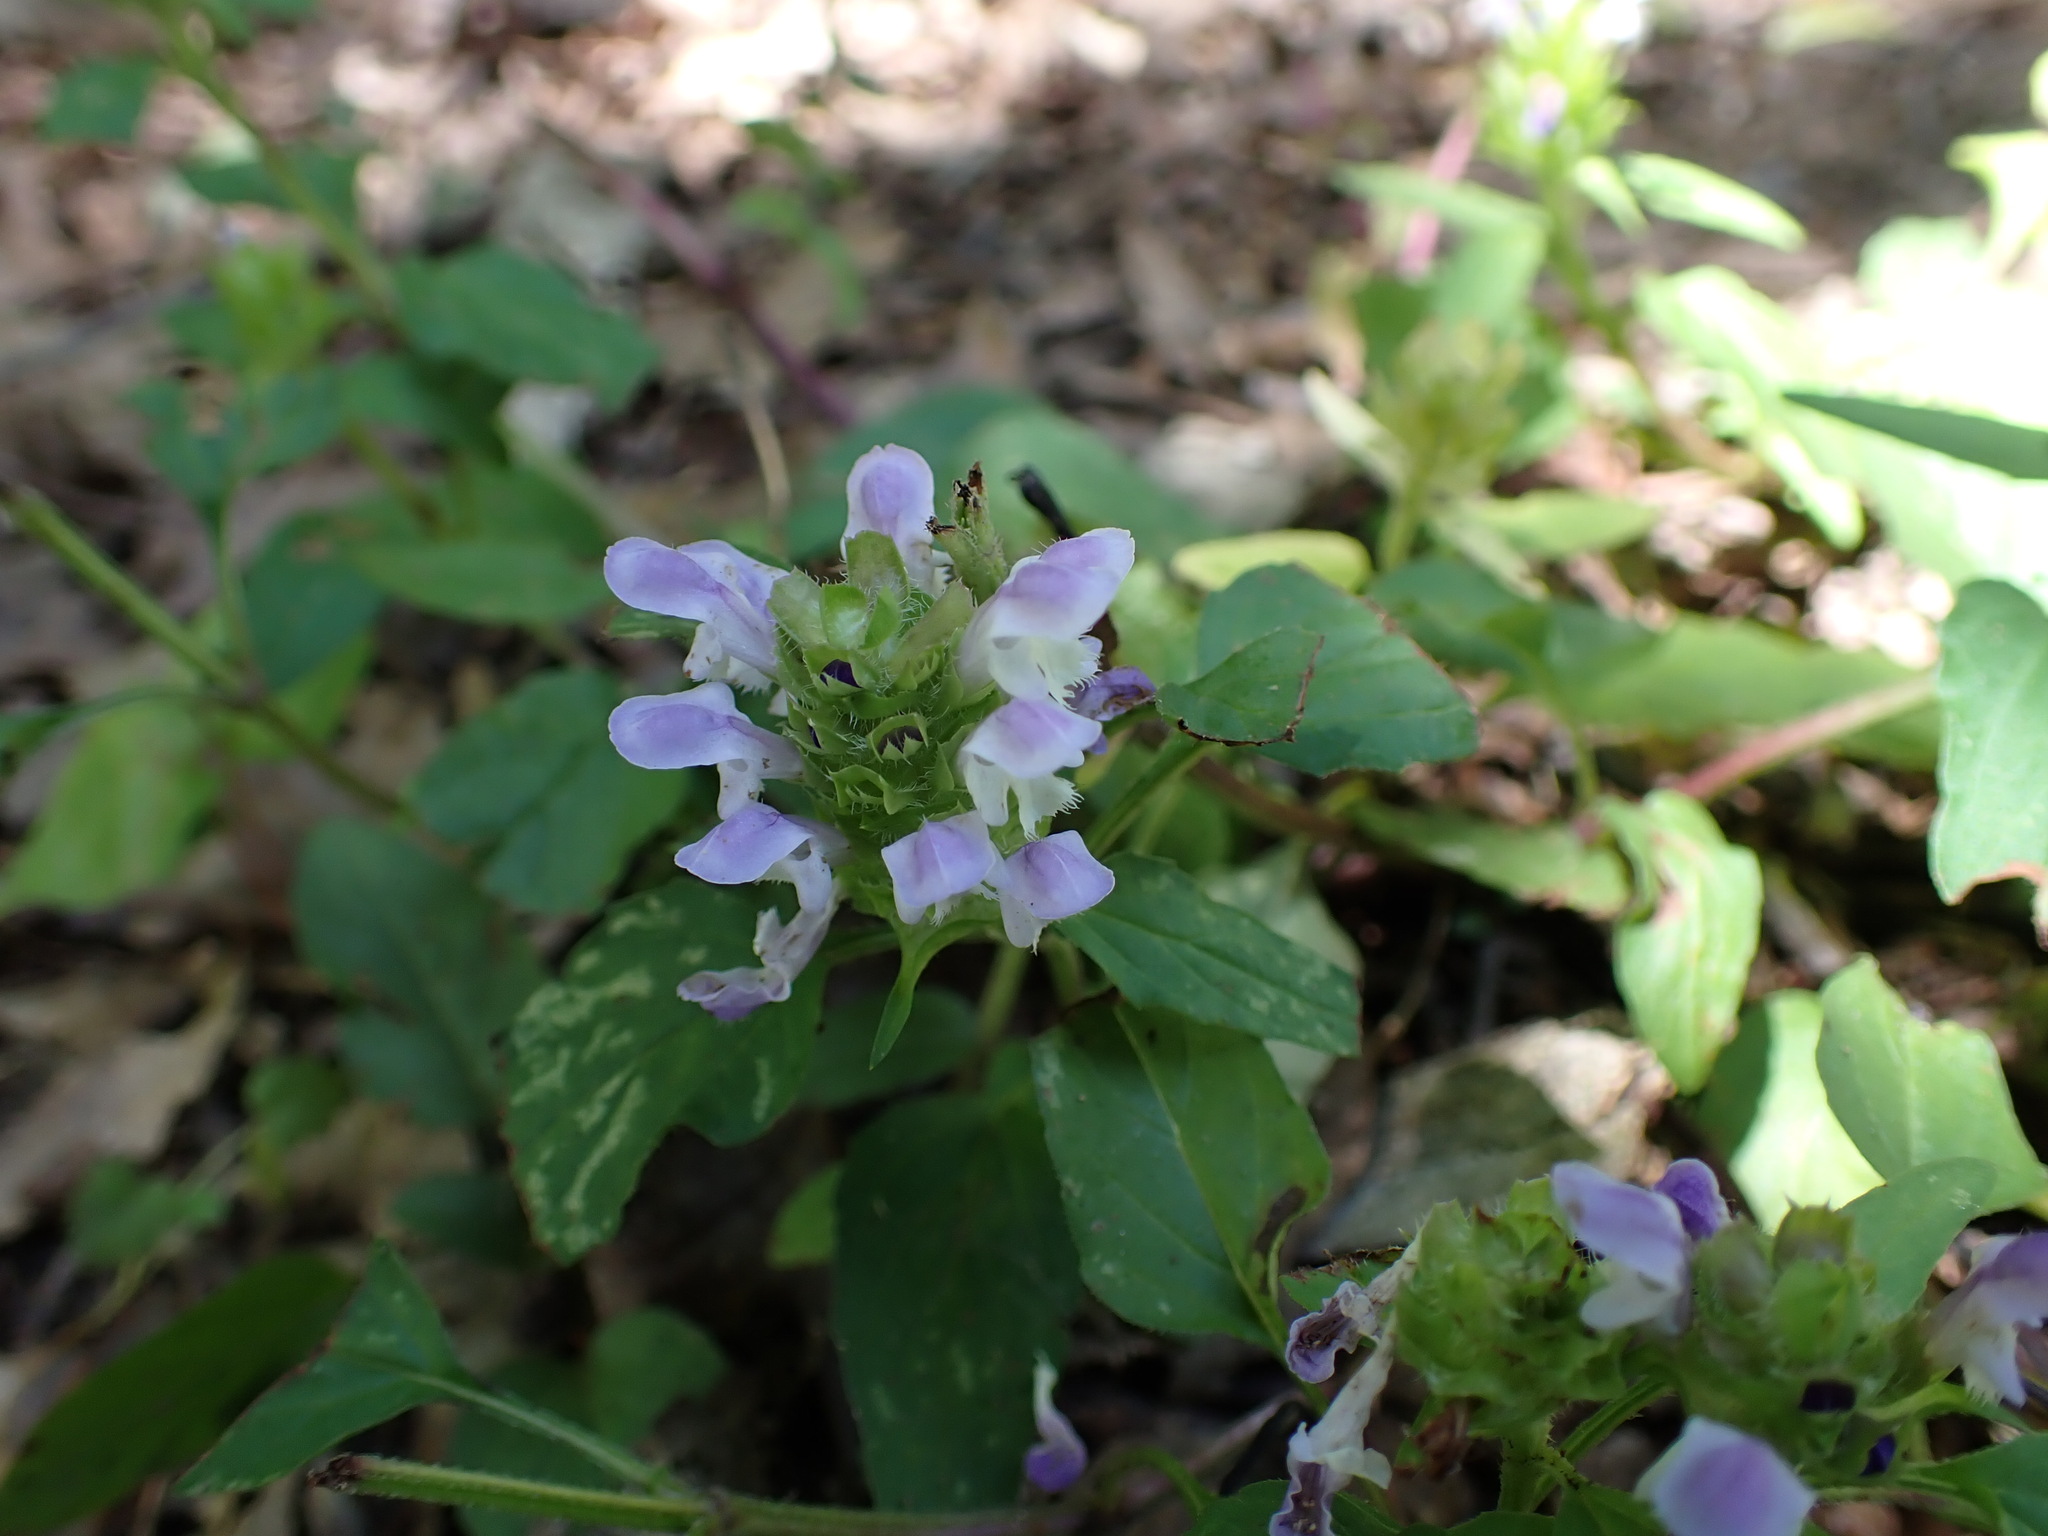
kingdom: Plantae
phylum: Tracheophyta
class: Magnoliopsida
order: Lamiales
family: Lamiaceae
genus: Prunella
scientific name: Prunella vulgaris
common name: Heal-all
